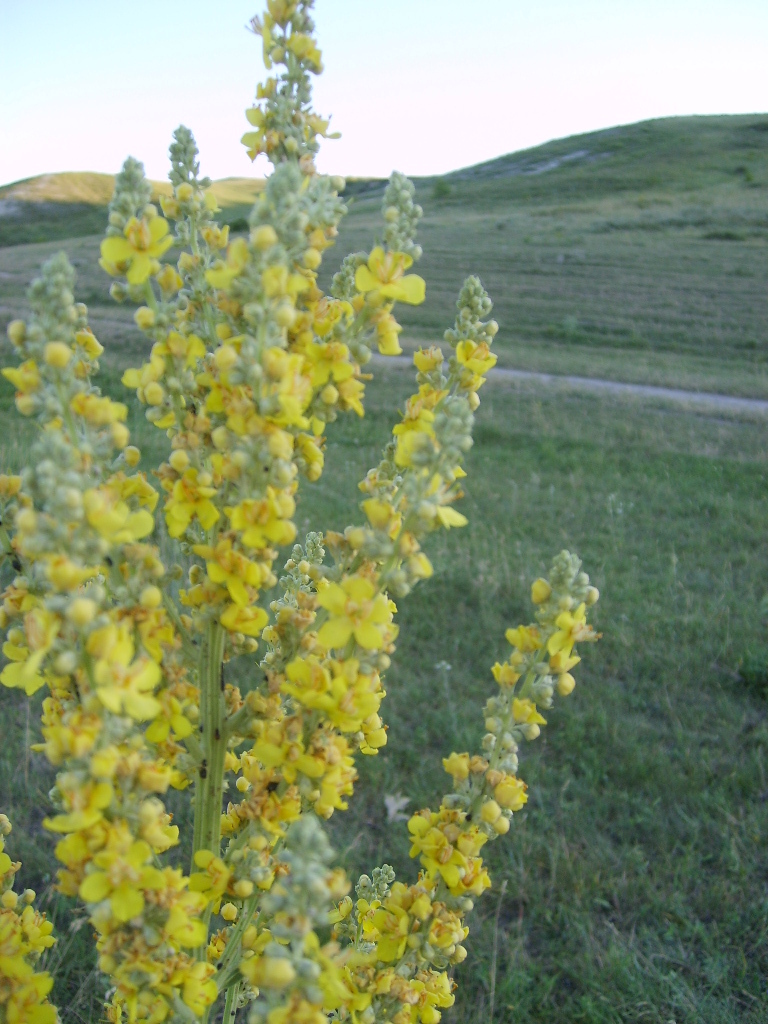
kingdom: Plantae
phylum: Tracheophyta
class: Magnoliopsida
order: Lamiales
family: Scrophulariaceae
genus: Verbascum
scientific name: Verbascum lychnitis
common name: White mullein
